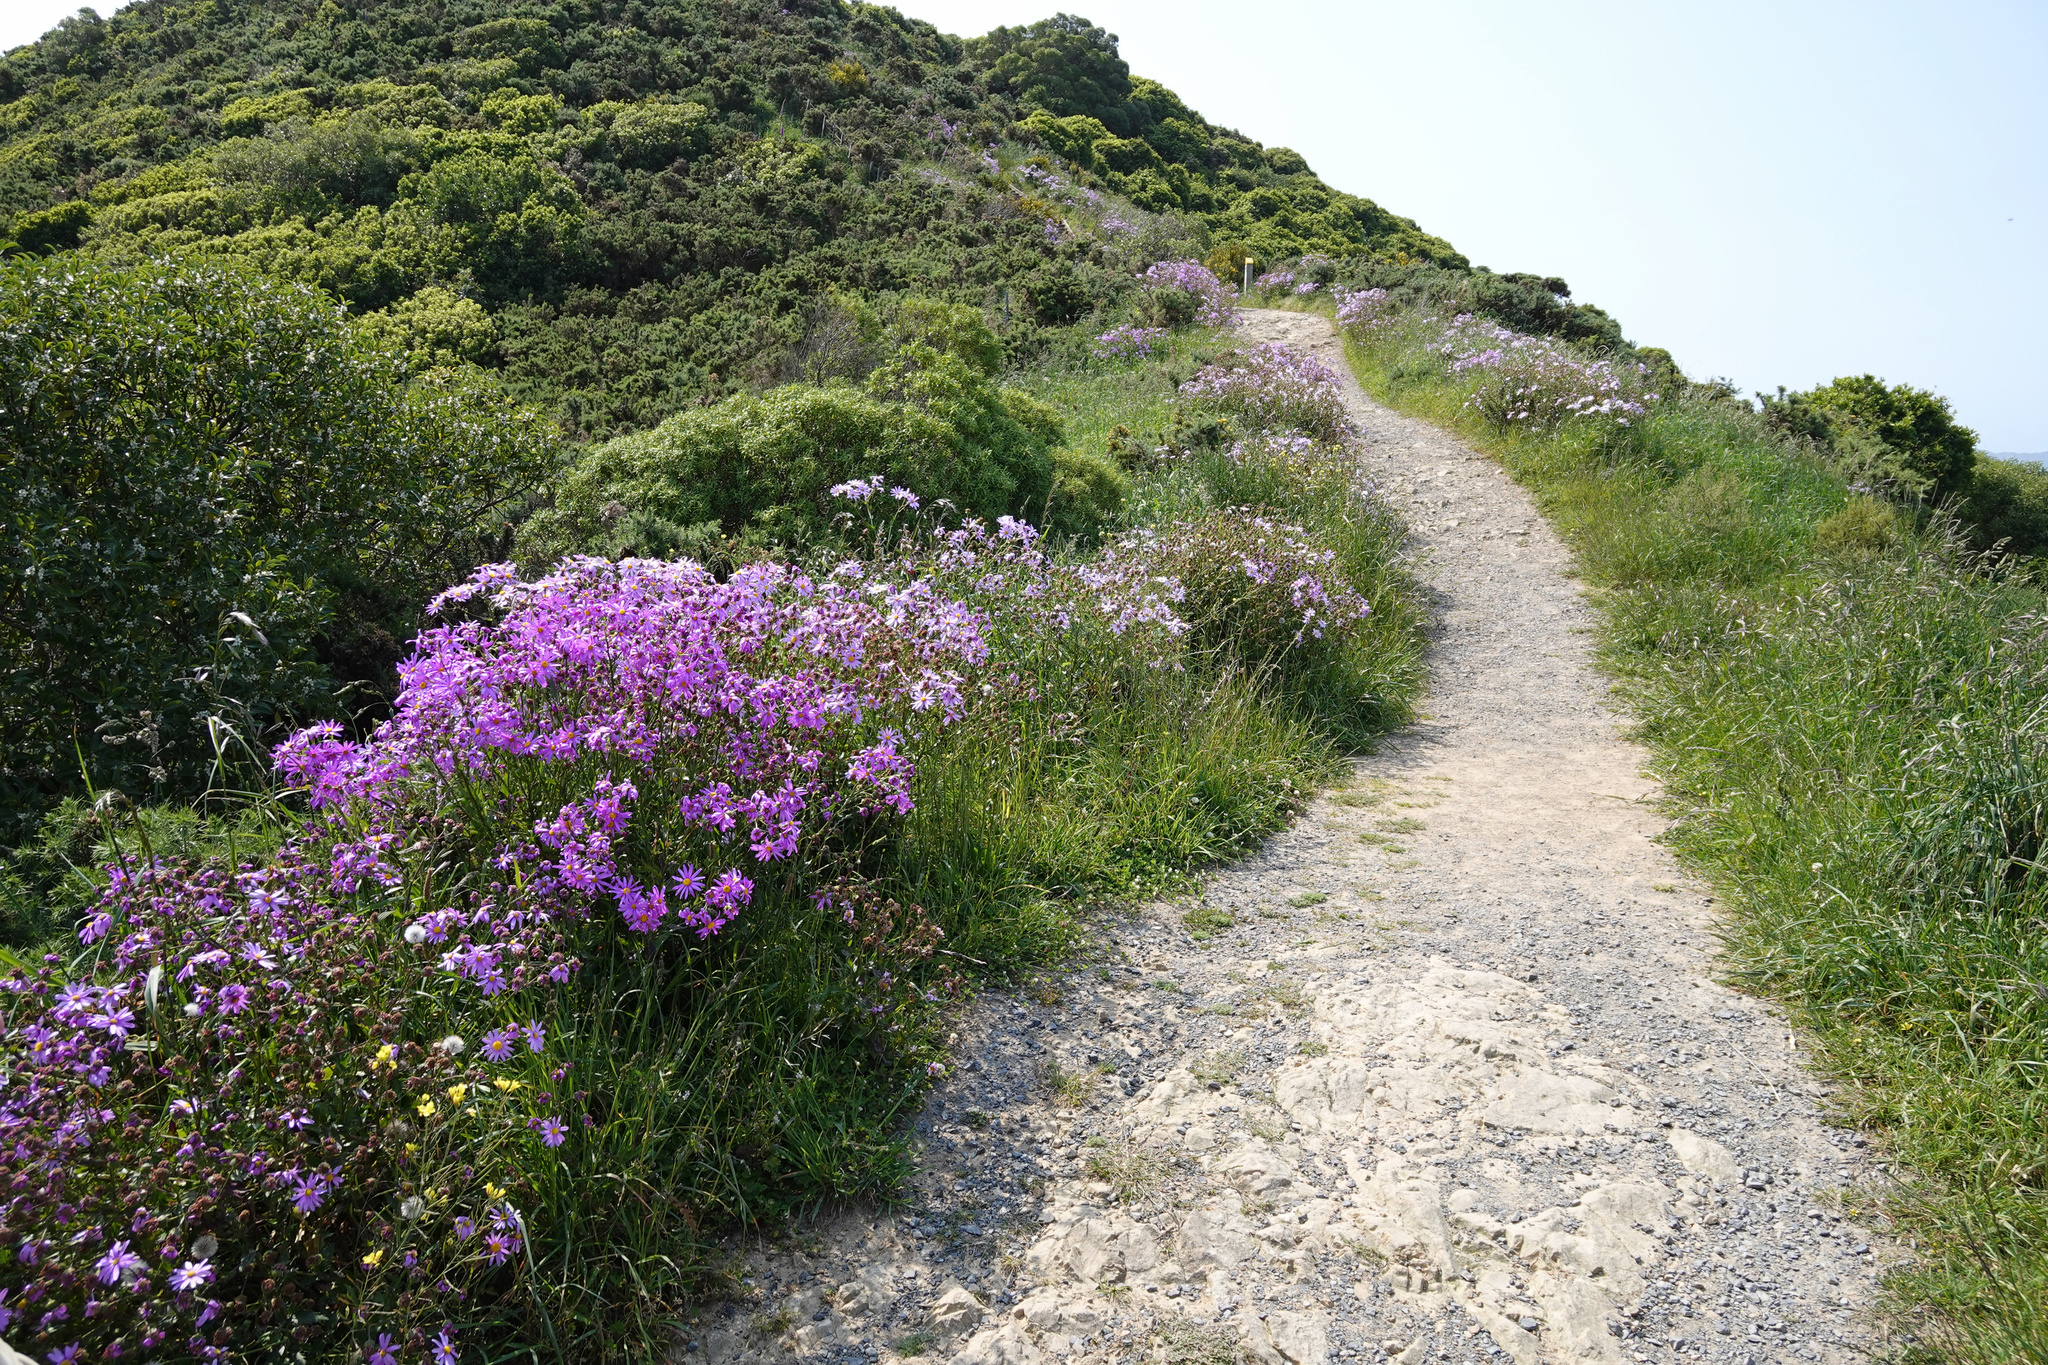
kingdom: Plantae
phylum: Tracheophyta
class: Magnoliopsida
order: Asterales
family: Asteraceae
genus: Senecio
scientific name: Senecio glastifolius
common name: Woad-leaved ragwort
